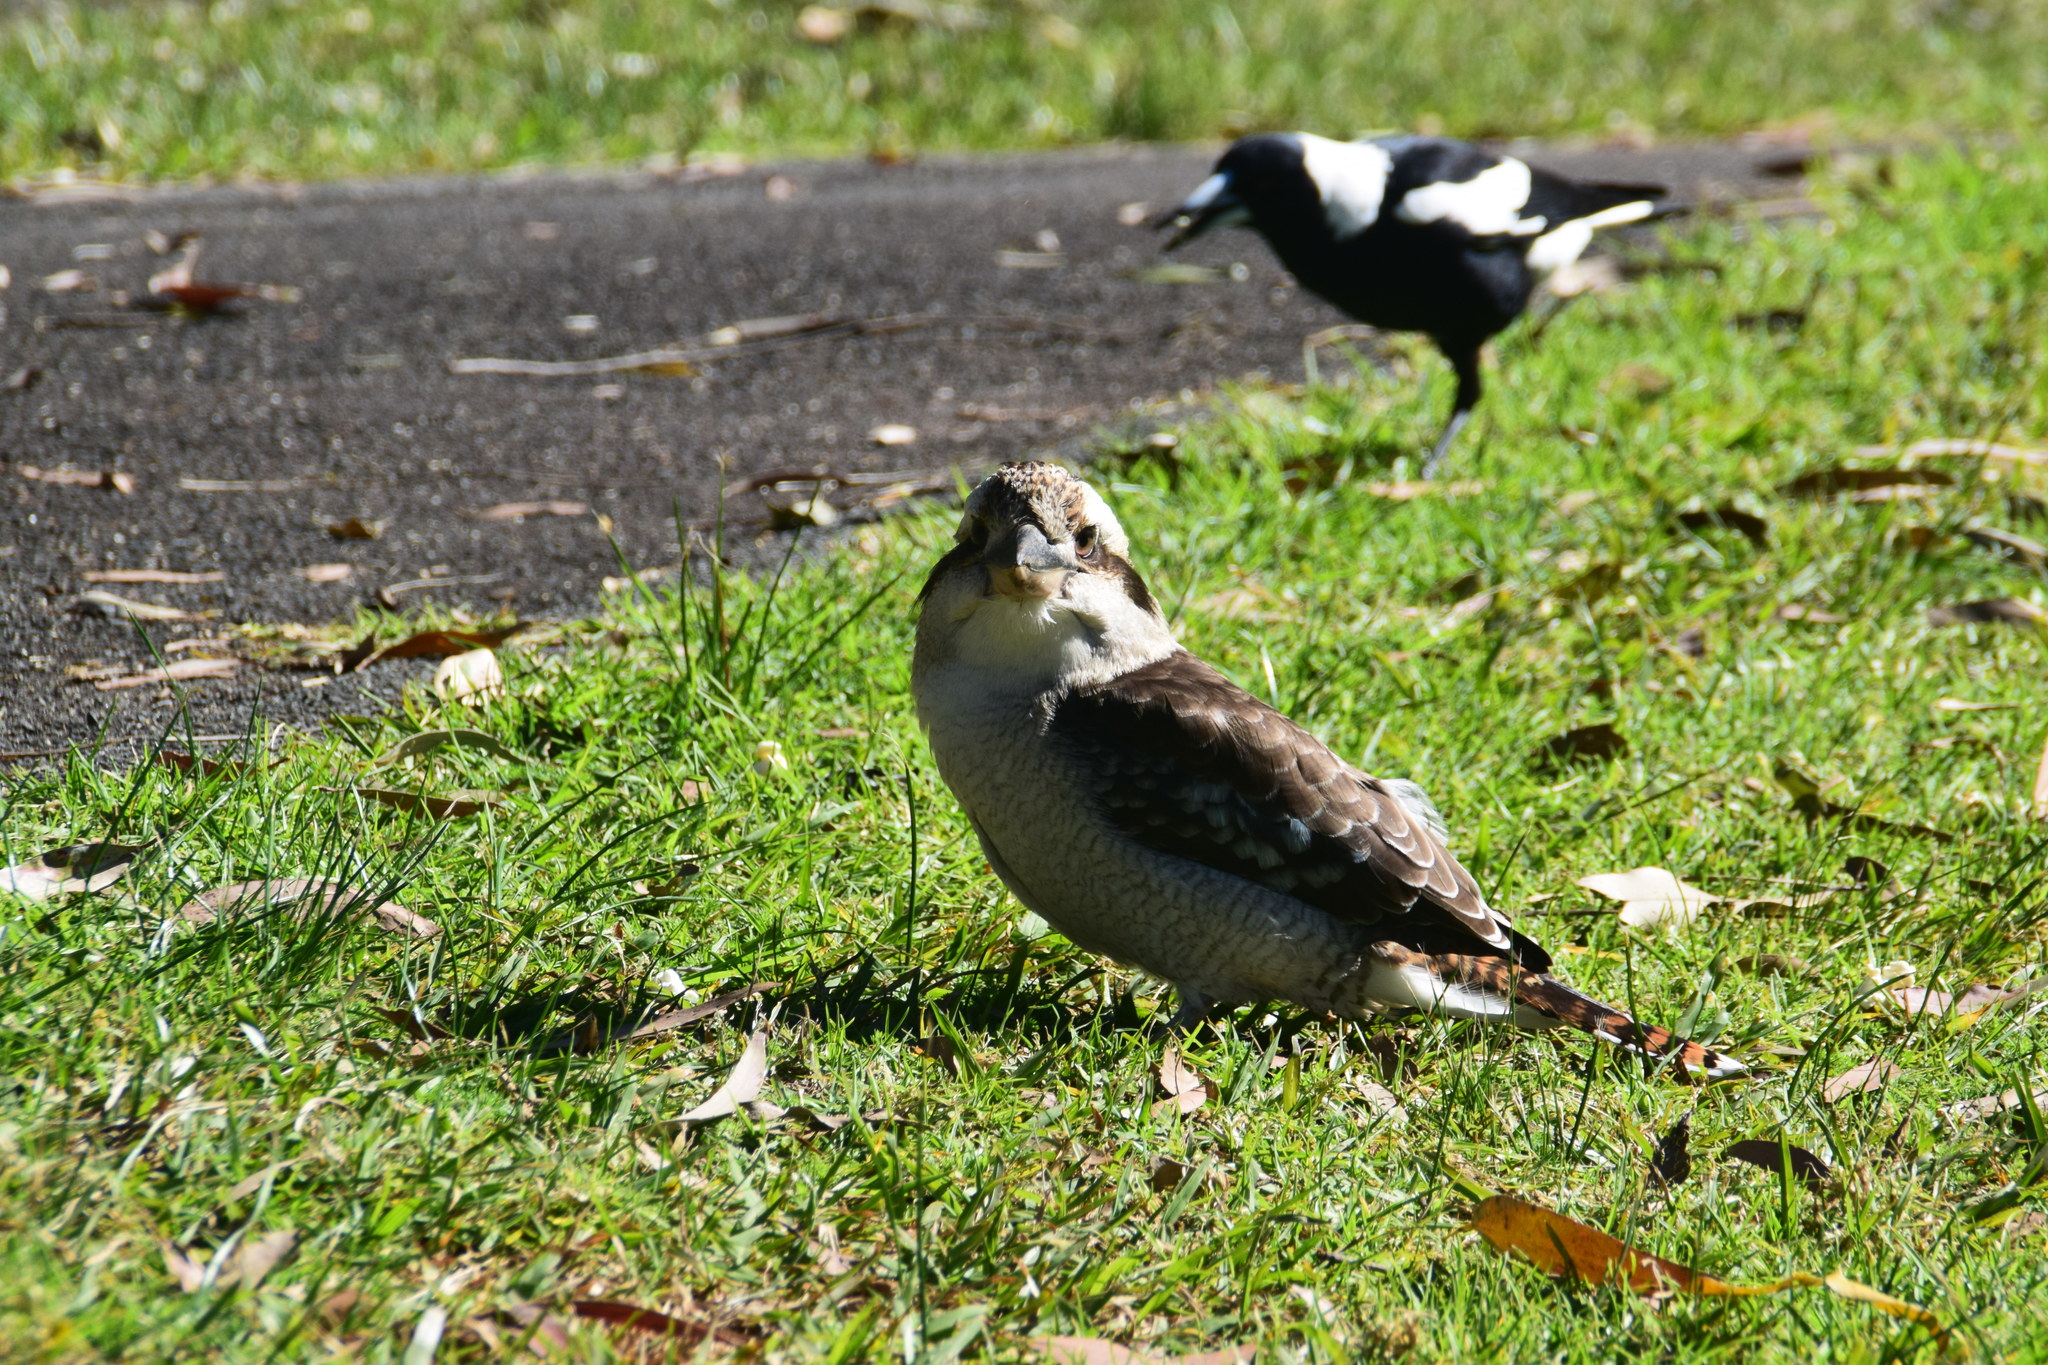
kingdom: Animalia
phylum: Chordata
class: Aves
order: Coraciiformes
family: Alcedinidae
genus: Dacelo
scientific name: Dacelo novaeguineae
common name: Laughing kookaburra
